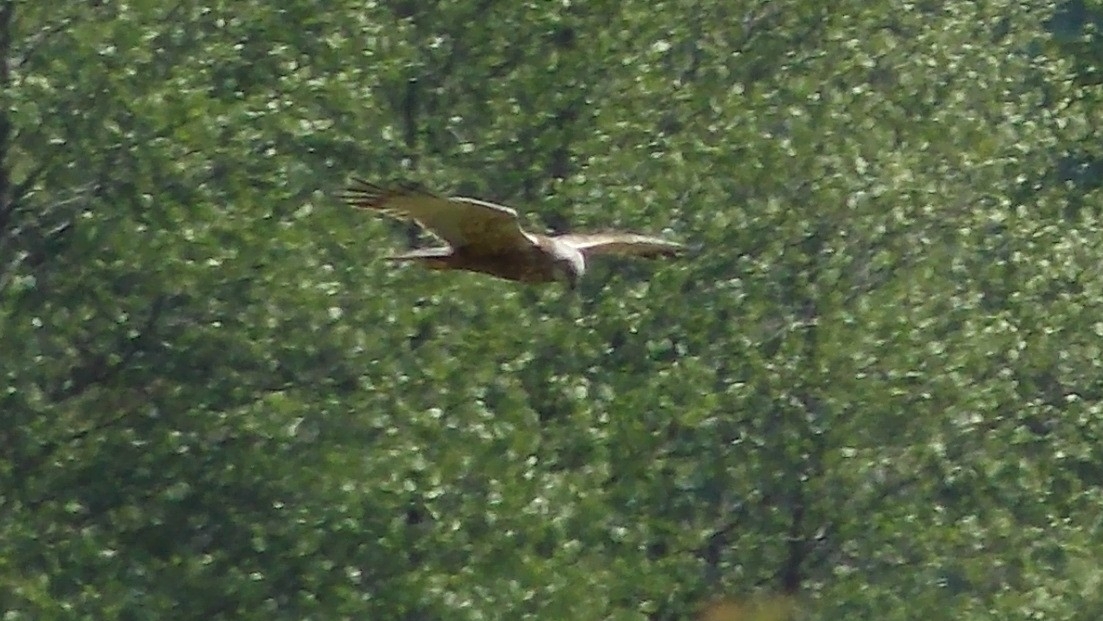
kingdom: Animalia
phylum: Chordata
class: Aves
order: Accipitriformes
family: Accipitridae
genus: Circus
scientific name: Circus aeruginosus
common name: Western marsh harrier
